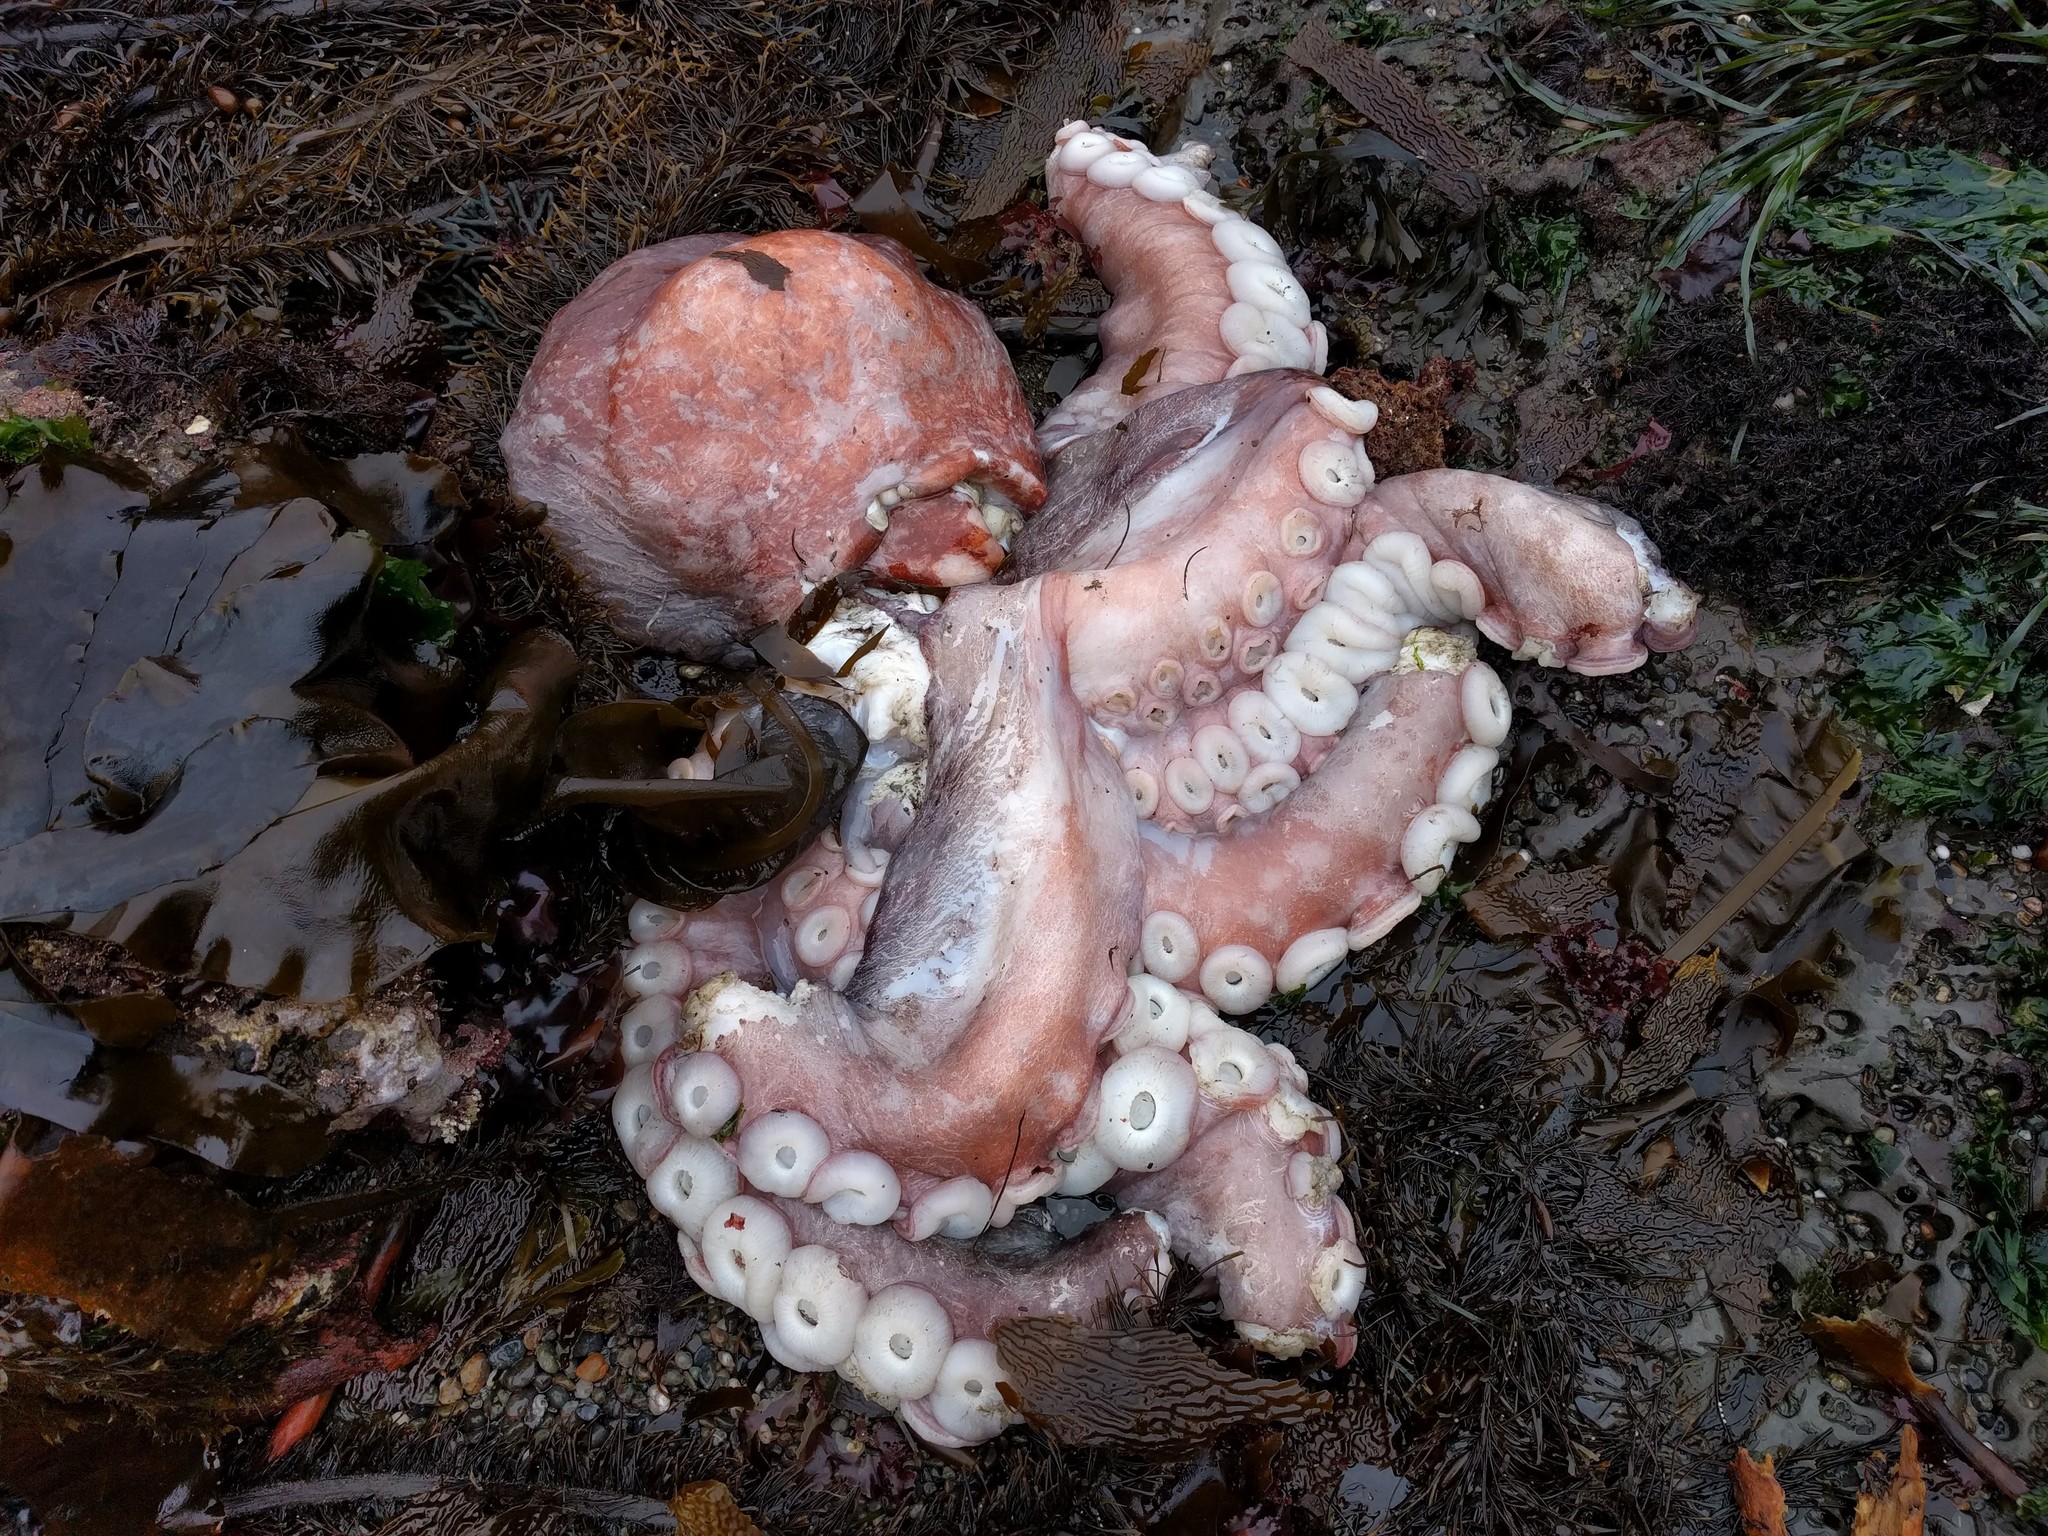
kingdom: Animalia
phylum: Mollusca
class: Cephalopoda
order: Octopoda
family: Enteroctopodidae
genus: Enteroctopus
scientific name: Enteroctopus dofleini
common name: Giant north pacific octopus
